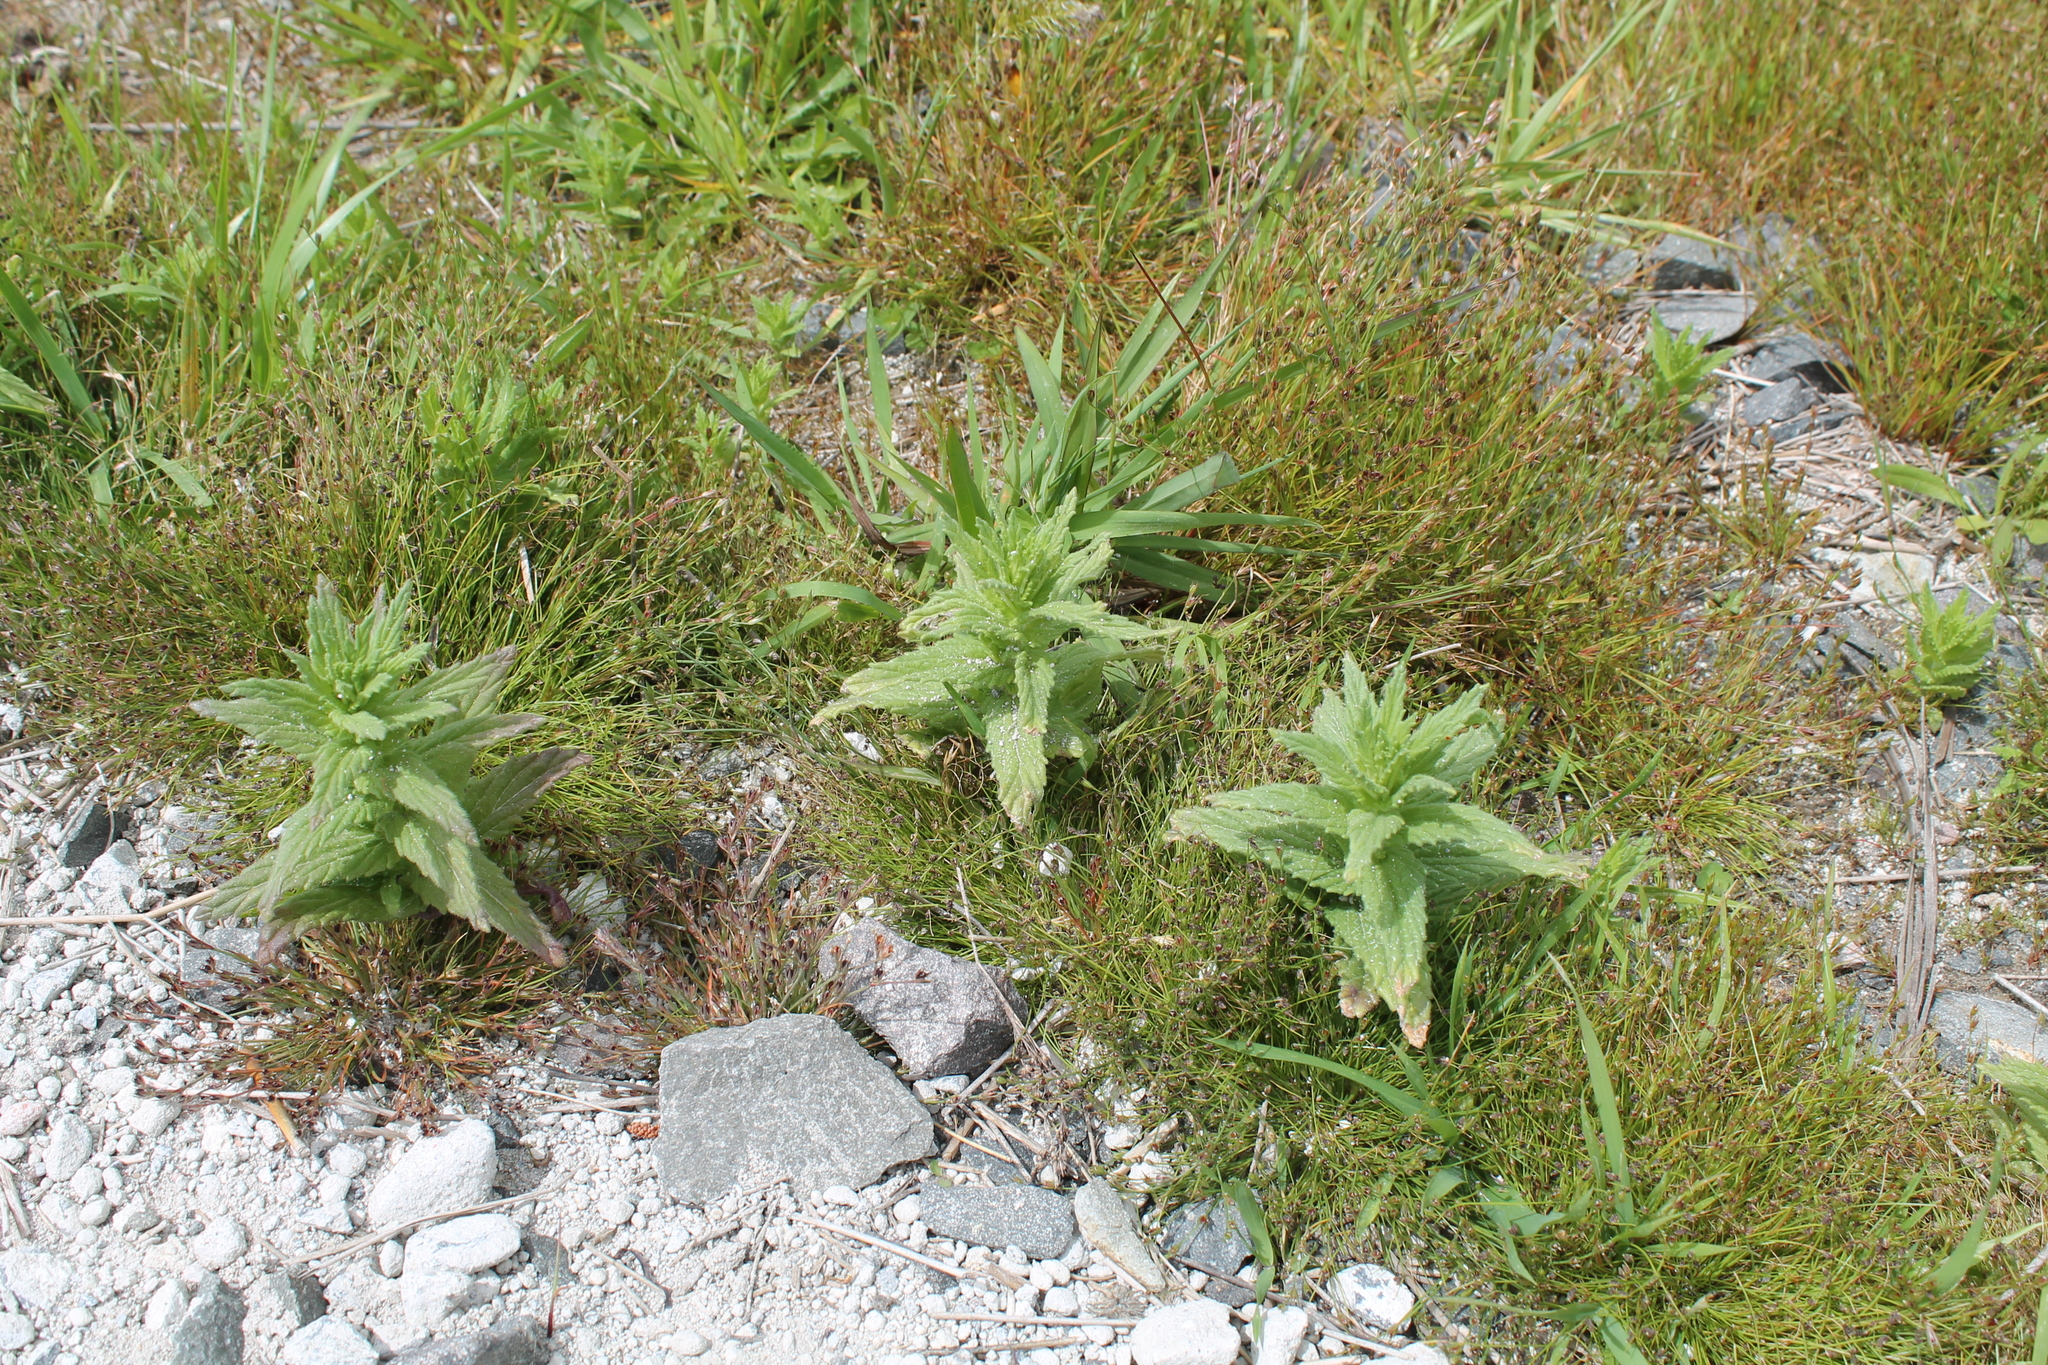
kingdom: Plantae
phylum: Tracheophyta
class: Magnoliopsida
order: Lamiales
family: Orobanchaceae
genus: Bellardia
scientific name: Bellardia viscosa
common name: Sticky parentucellia
